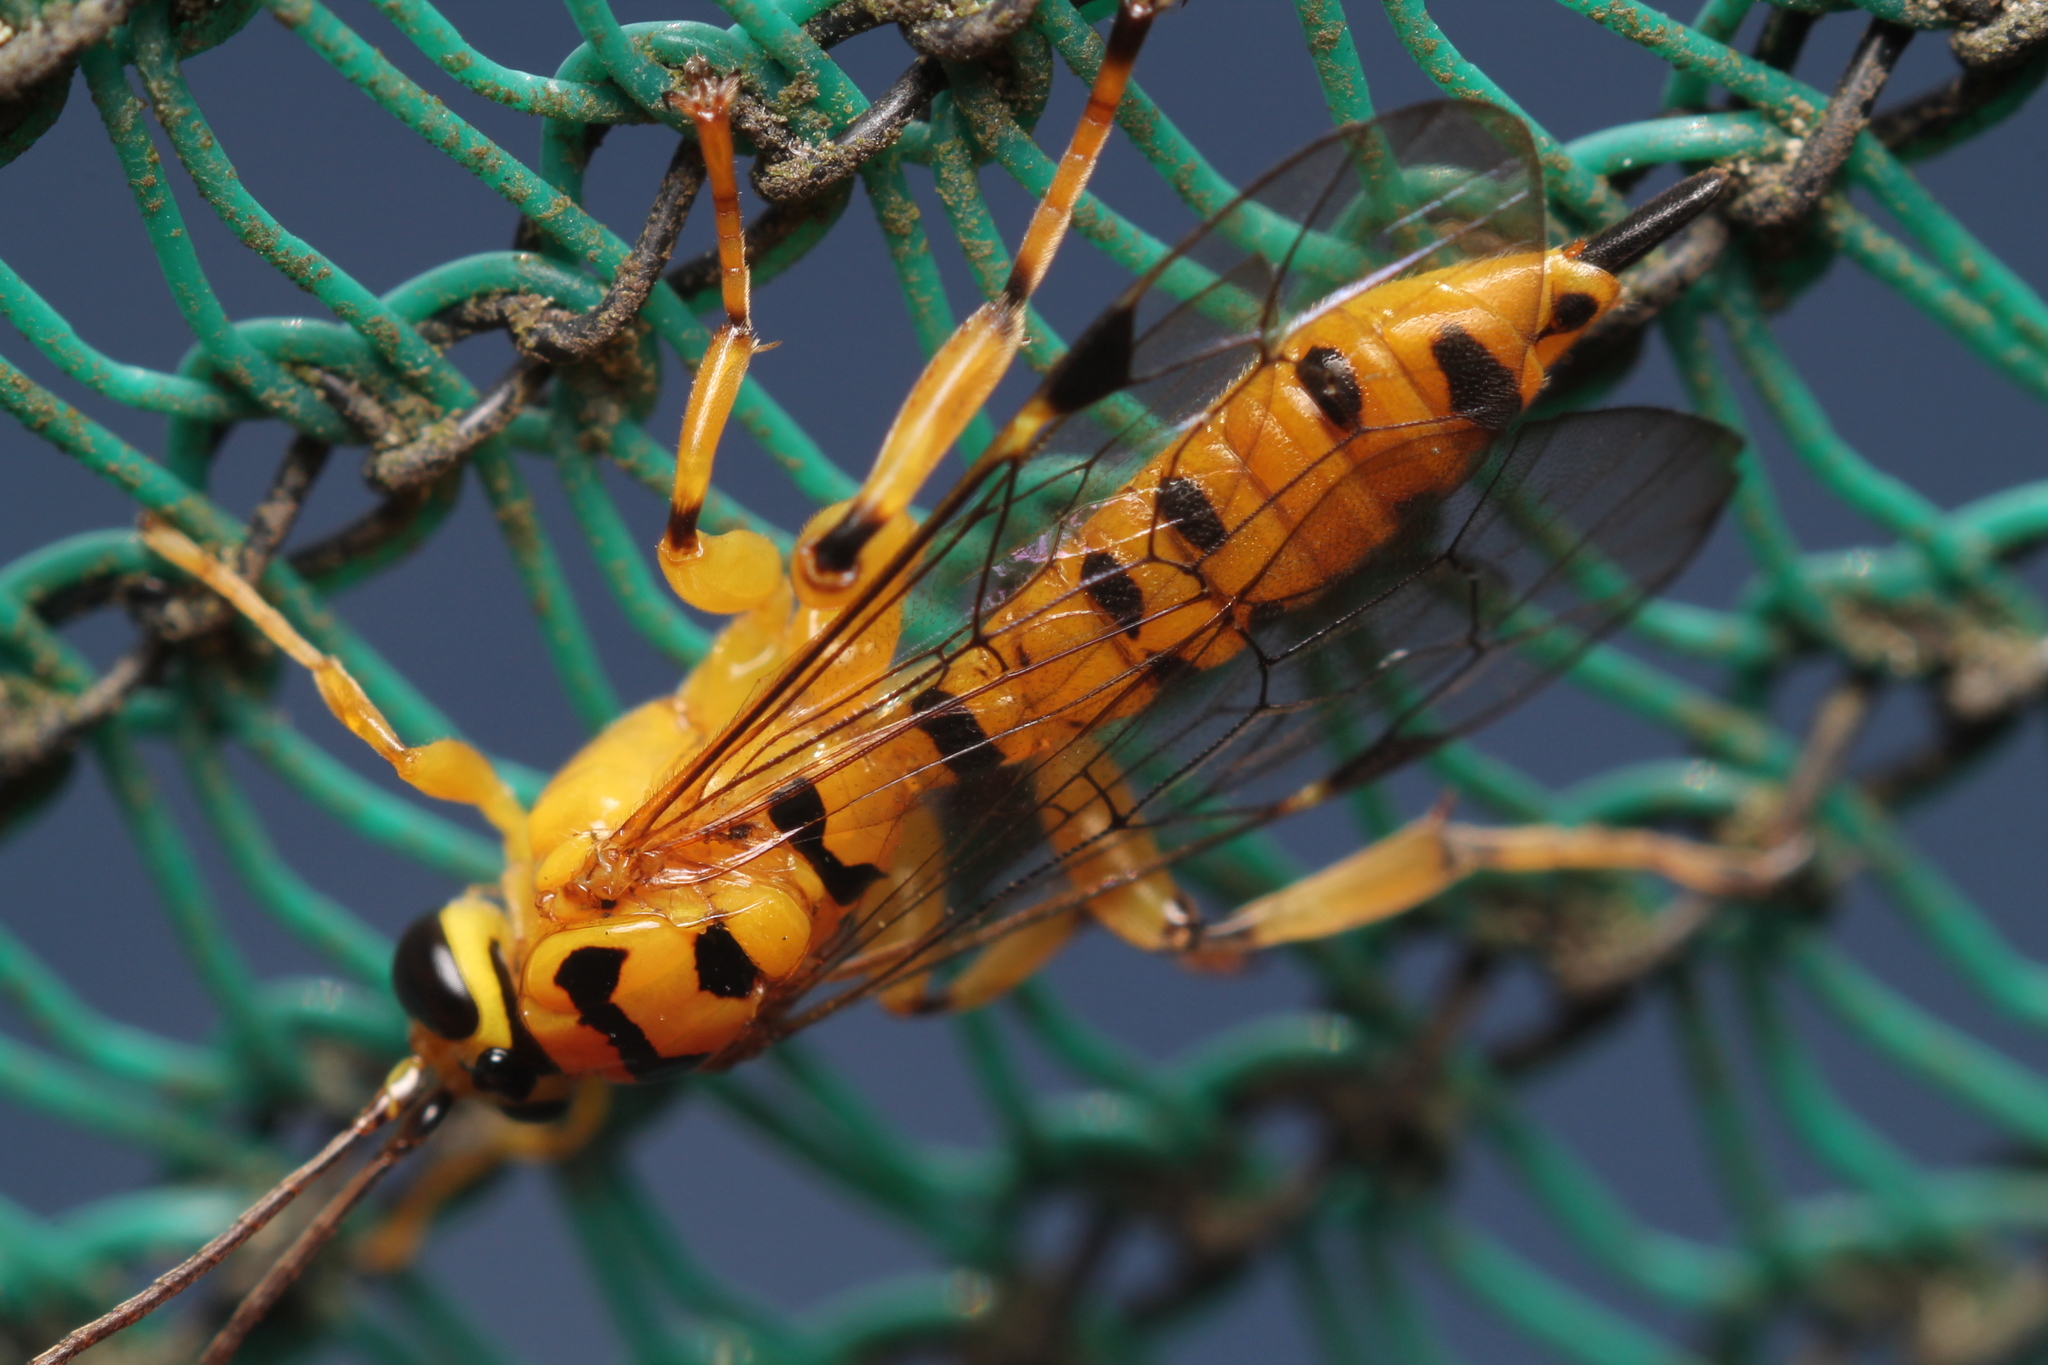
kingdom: Animalia
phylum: Arthropoda
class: Insecta
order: Hymenoptera
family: Ichneumonidae
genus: Xanthopimpla
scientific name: Xanthopimpla rhopaloceros
